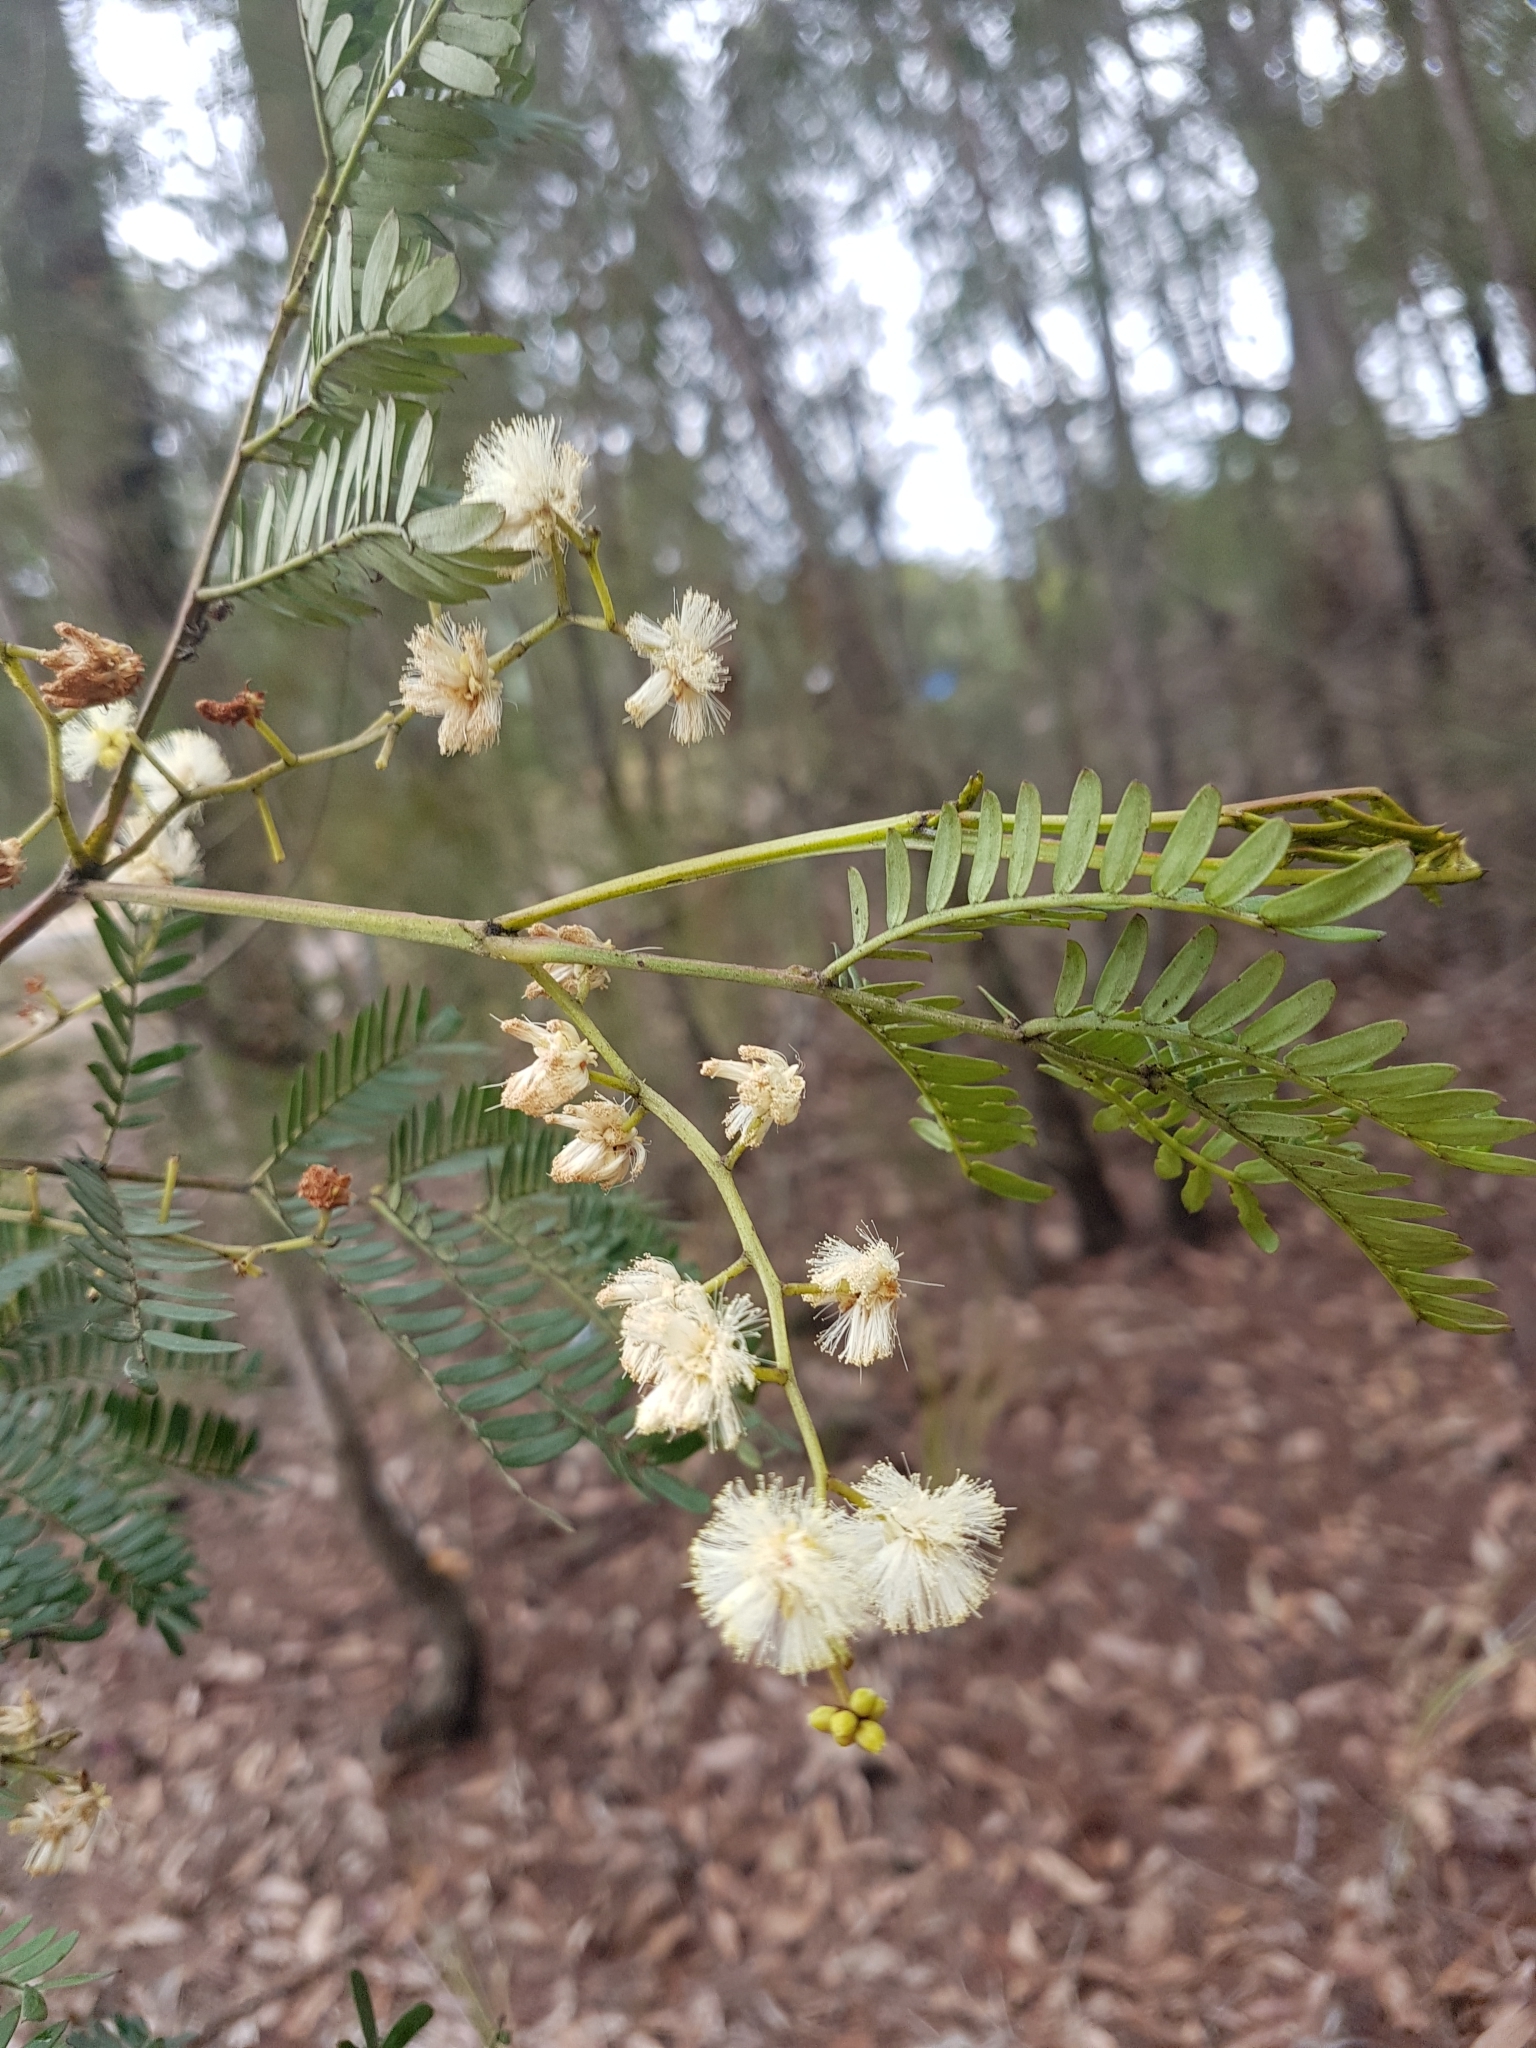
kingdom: Plantae
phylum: Tracheophyta
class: Magnoliopsida
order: Fabales
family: Fabaceae
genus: Acacia
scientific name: Acacia terminalis
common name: Cedar wattle
